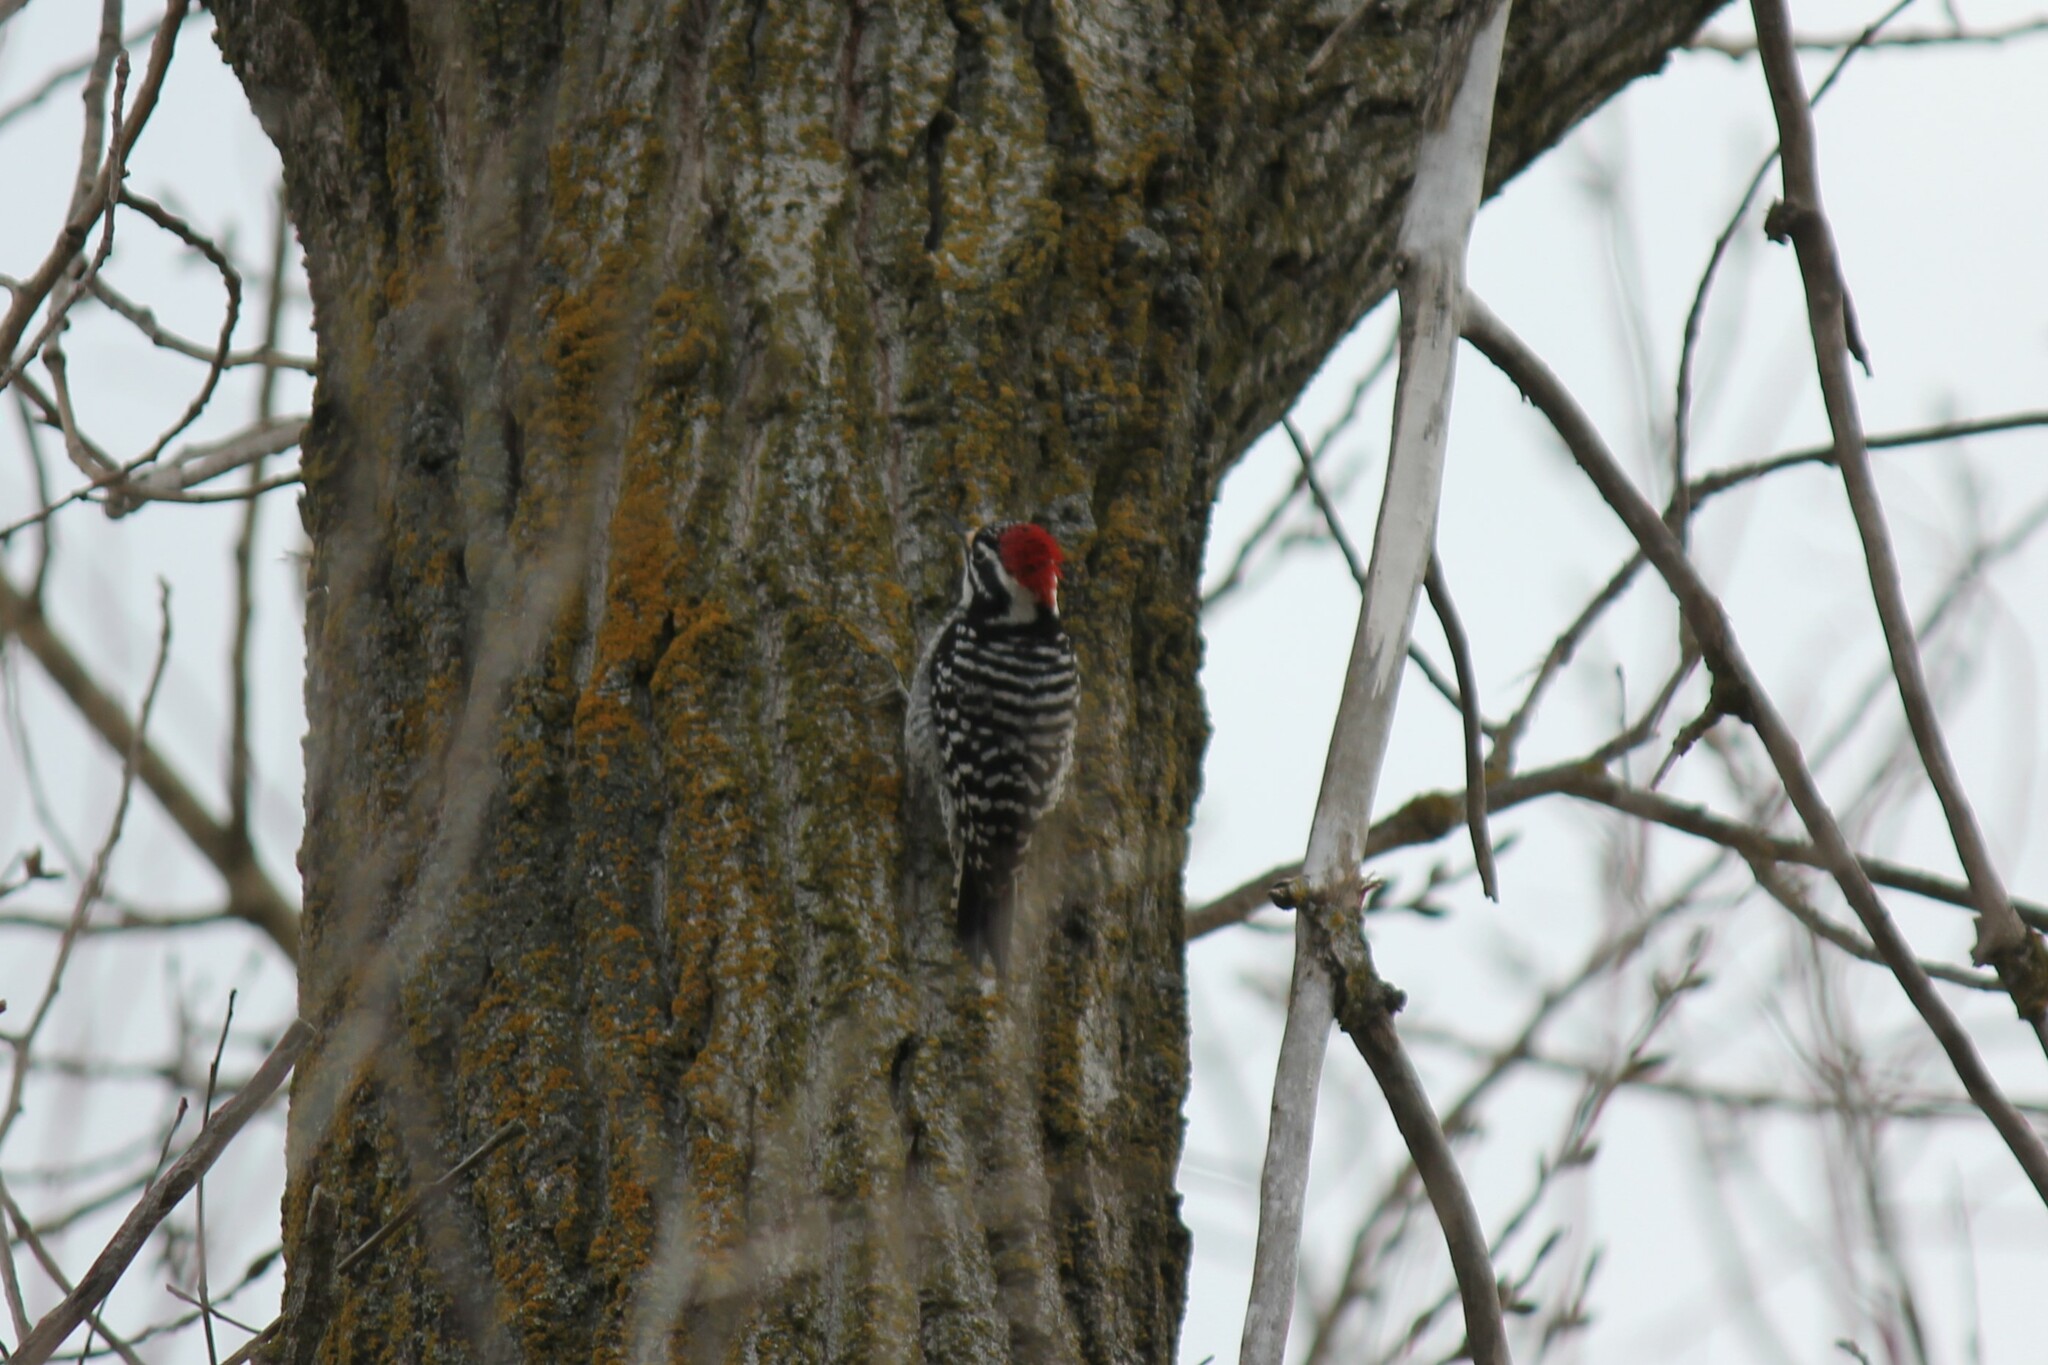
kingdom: Animalia
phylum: Chordata
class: Aves
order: Piciformes
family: Picidae
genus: Dryobates
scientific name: Dryobates nuttallii
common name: Nuttall's woodpecker
